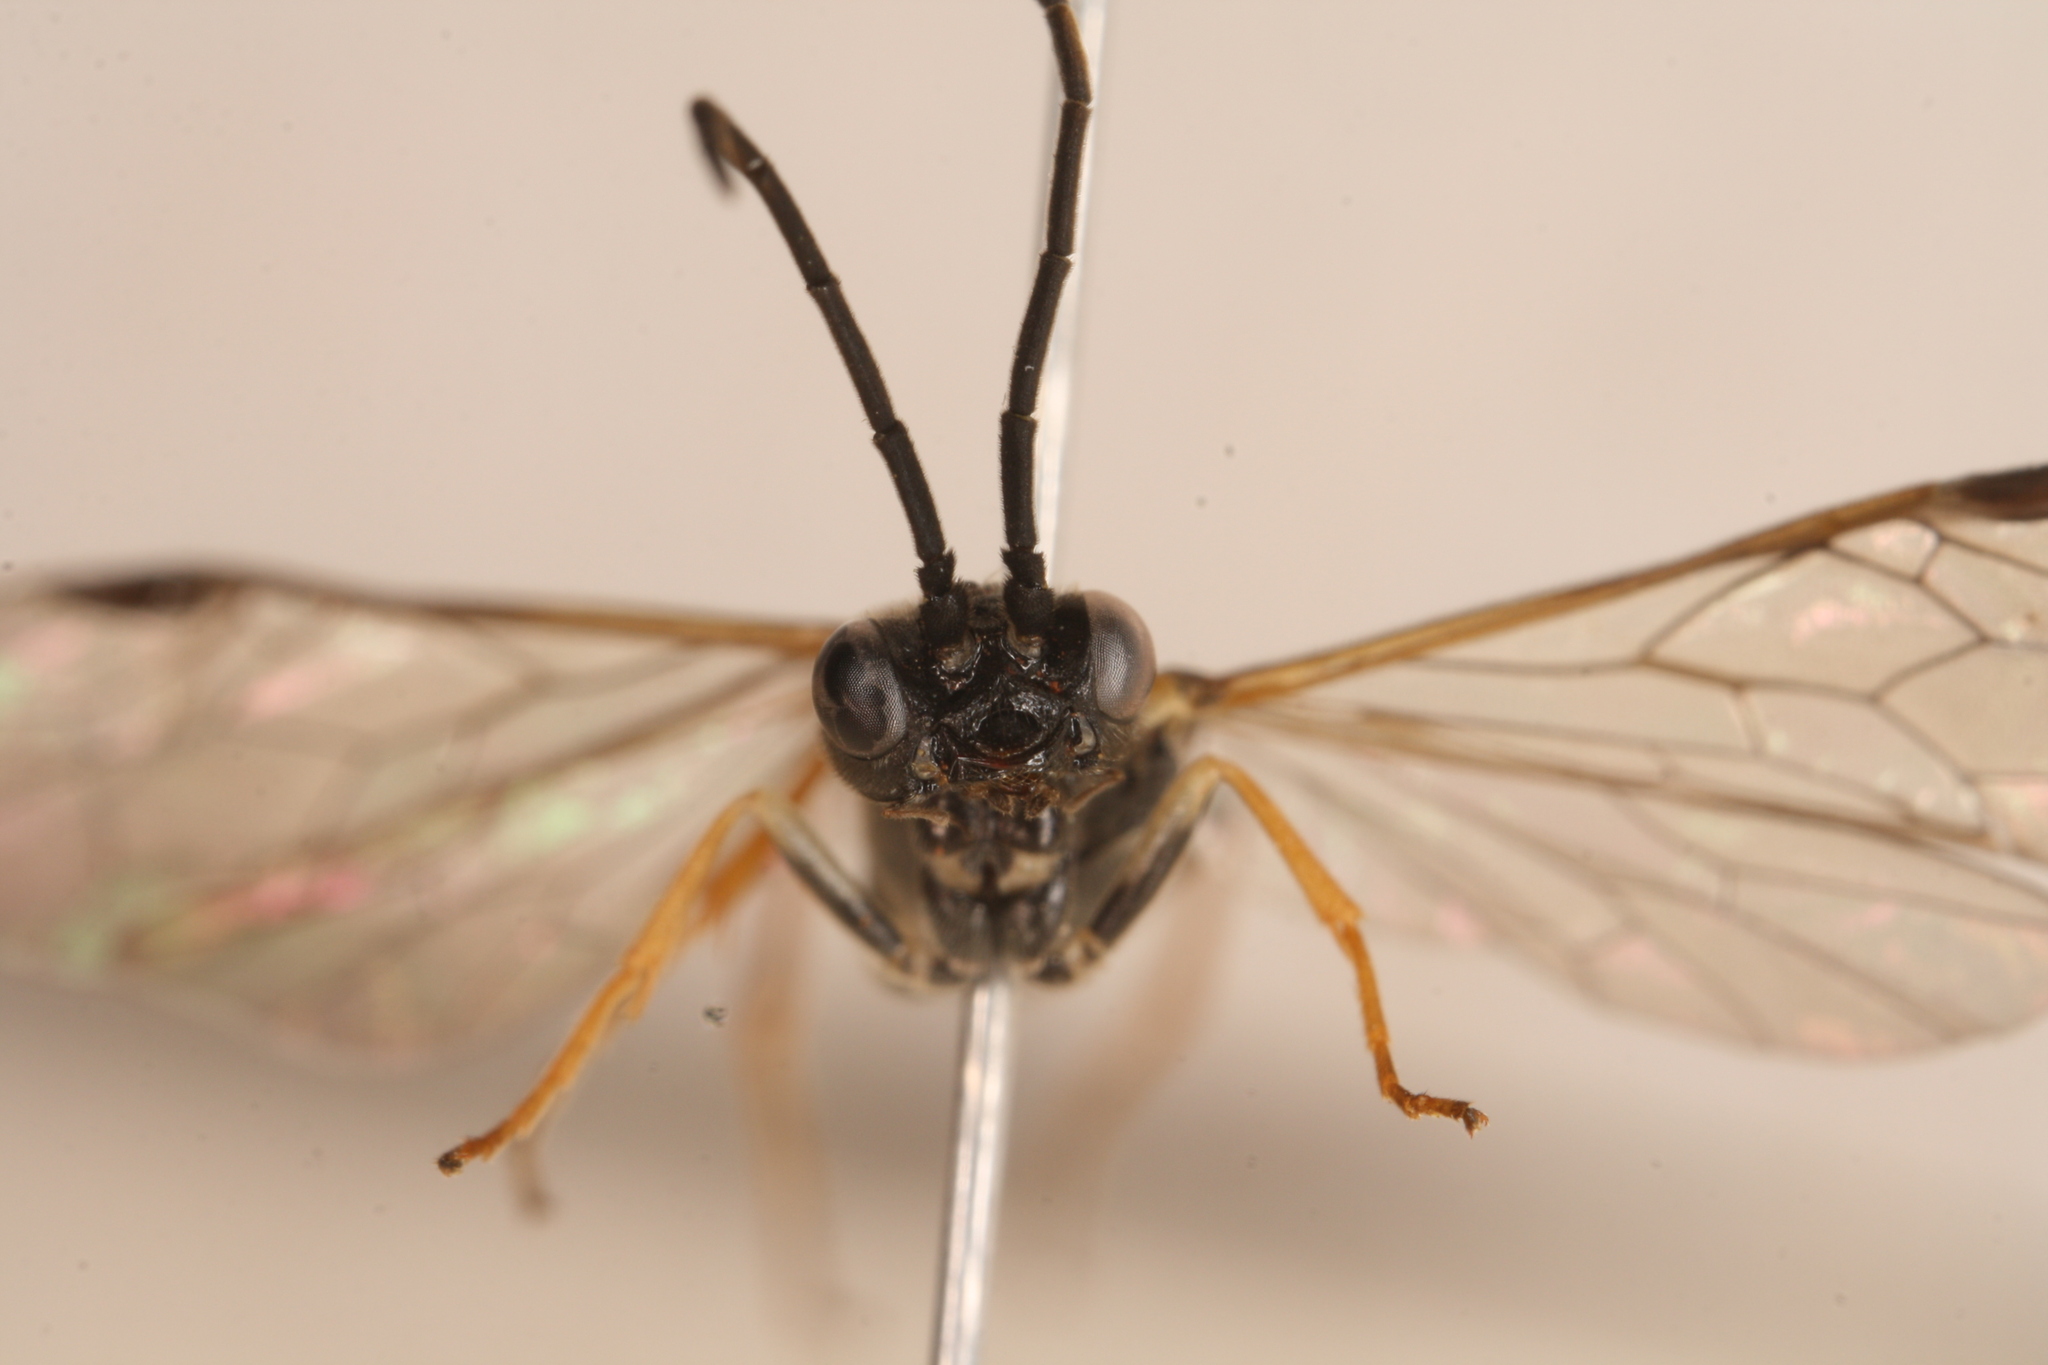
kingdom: Animalia
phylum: Arthropoda
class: Insecta
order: Hymenoptera
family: Tenthredinidae
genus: Allantus
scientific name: Allantus rufocinctus
